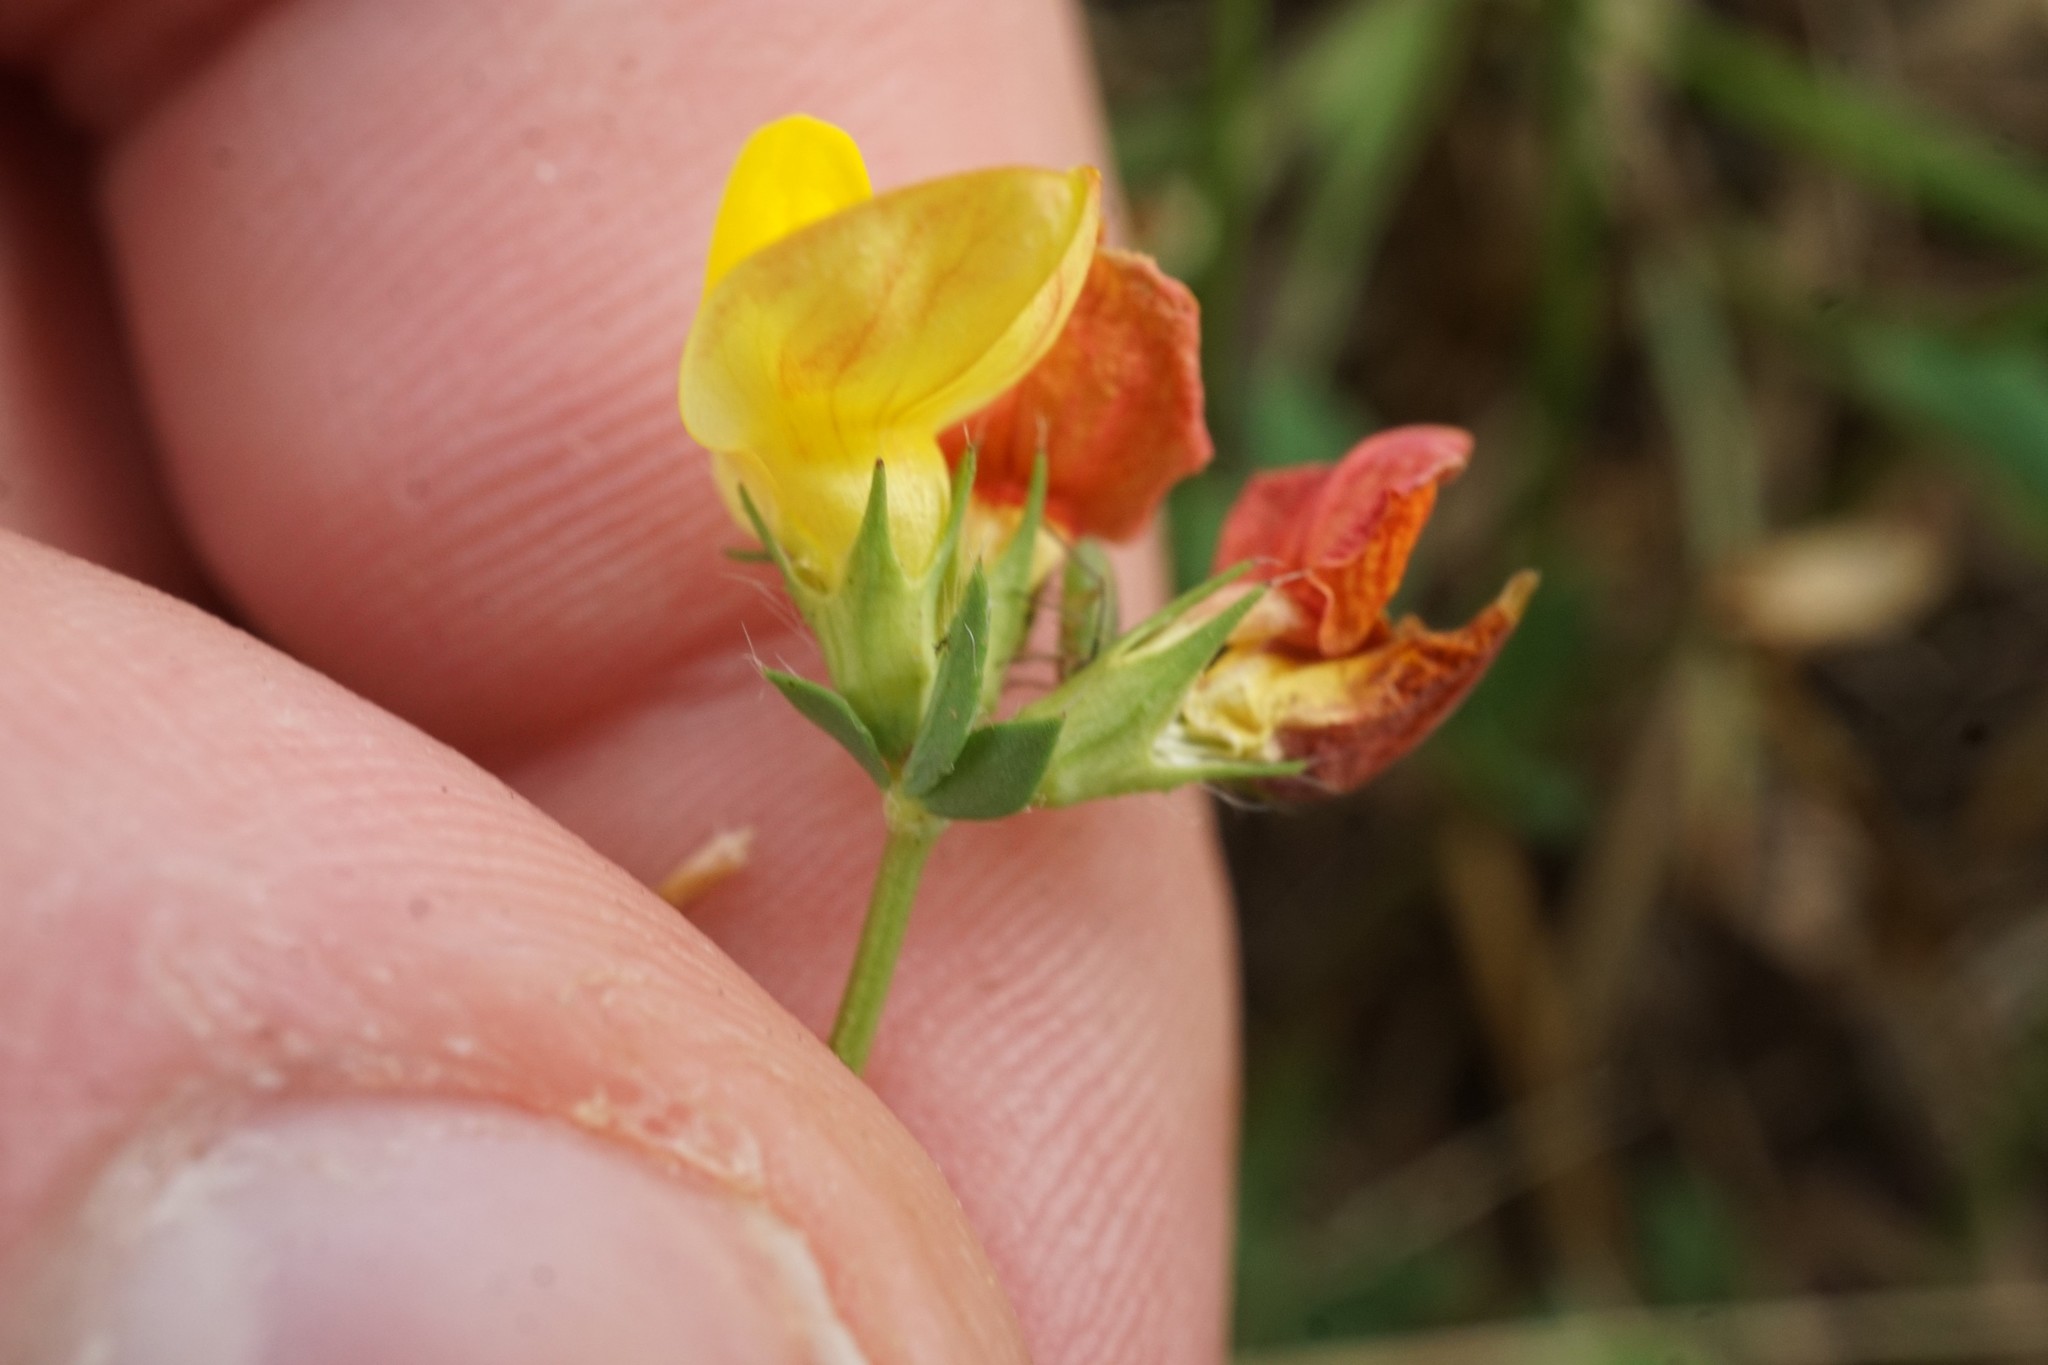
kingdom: Plantae
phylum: Tracheophyta
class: Magnoliopsida
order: Fabales
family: Fabaceae
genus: Lotus
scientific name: Lotus corniculatus
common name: Common bird's-foot-trefoil
